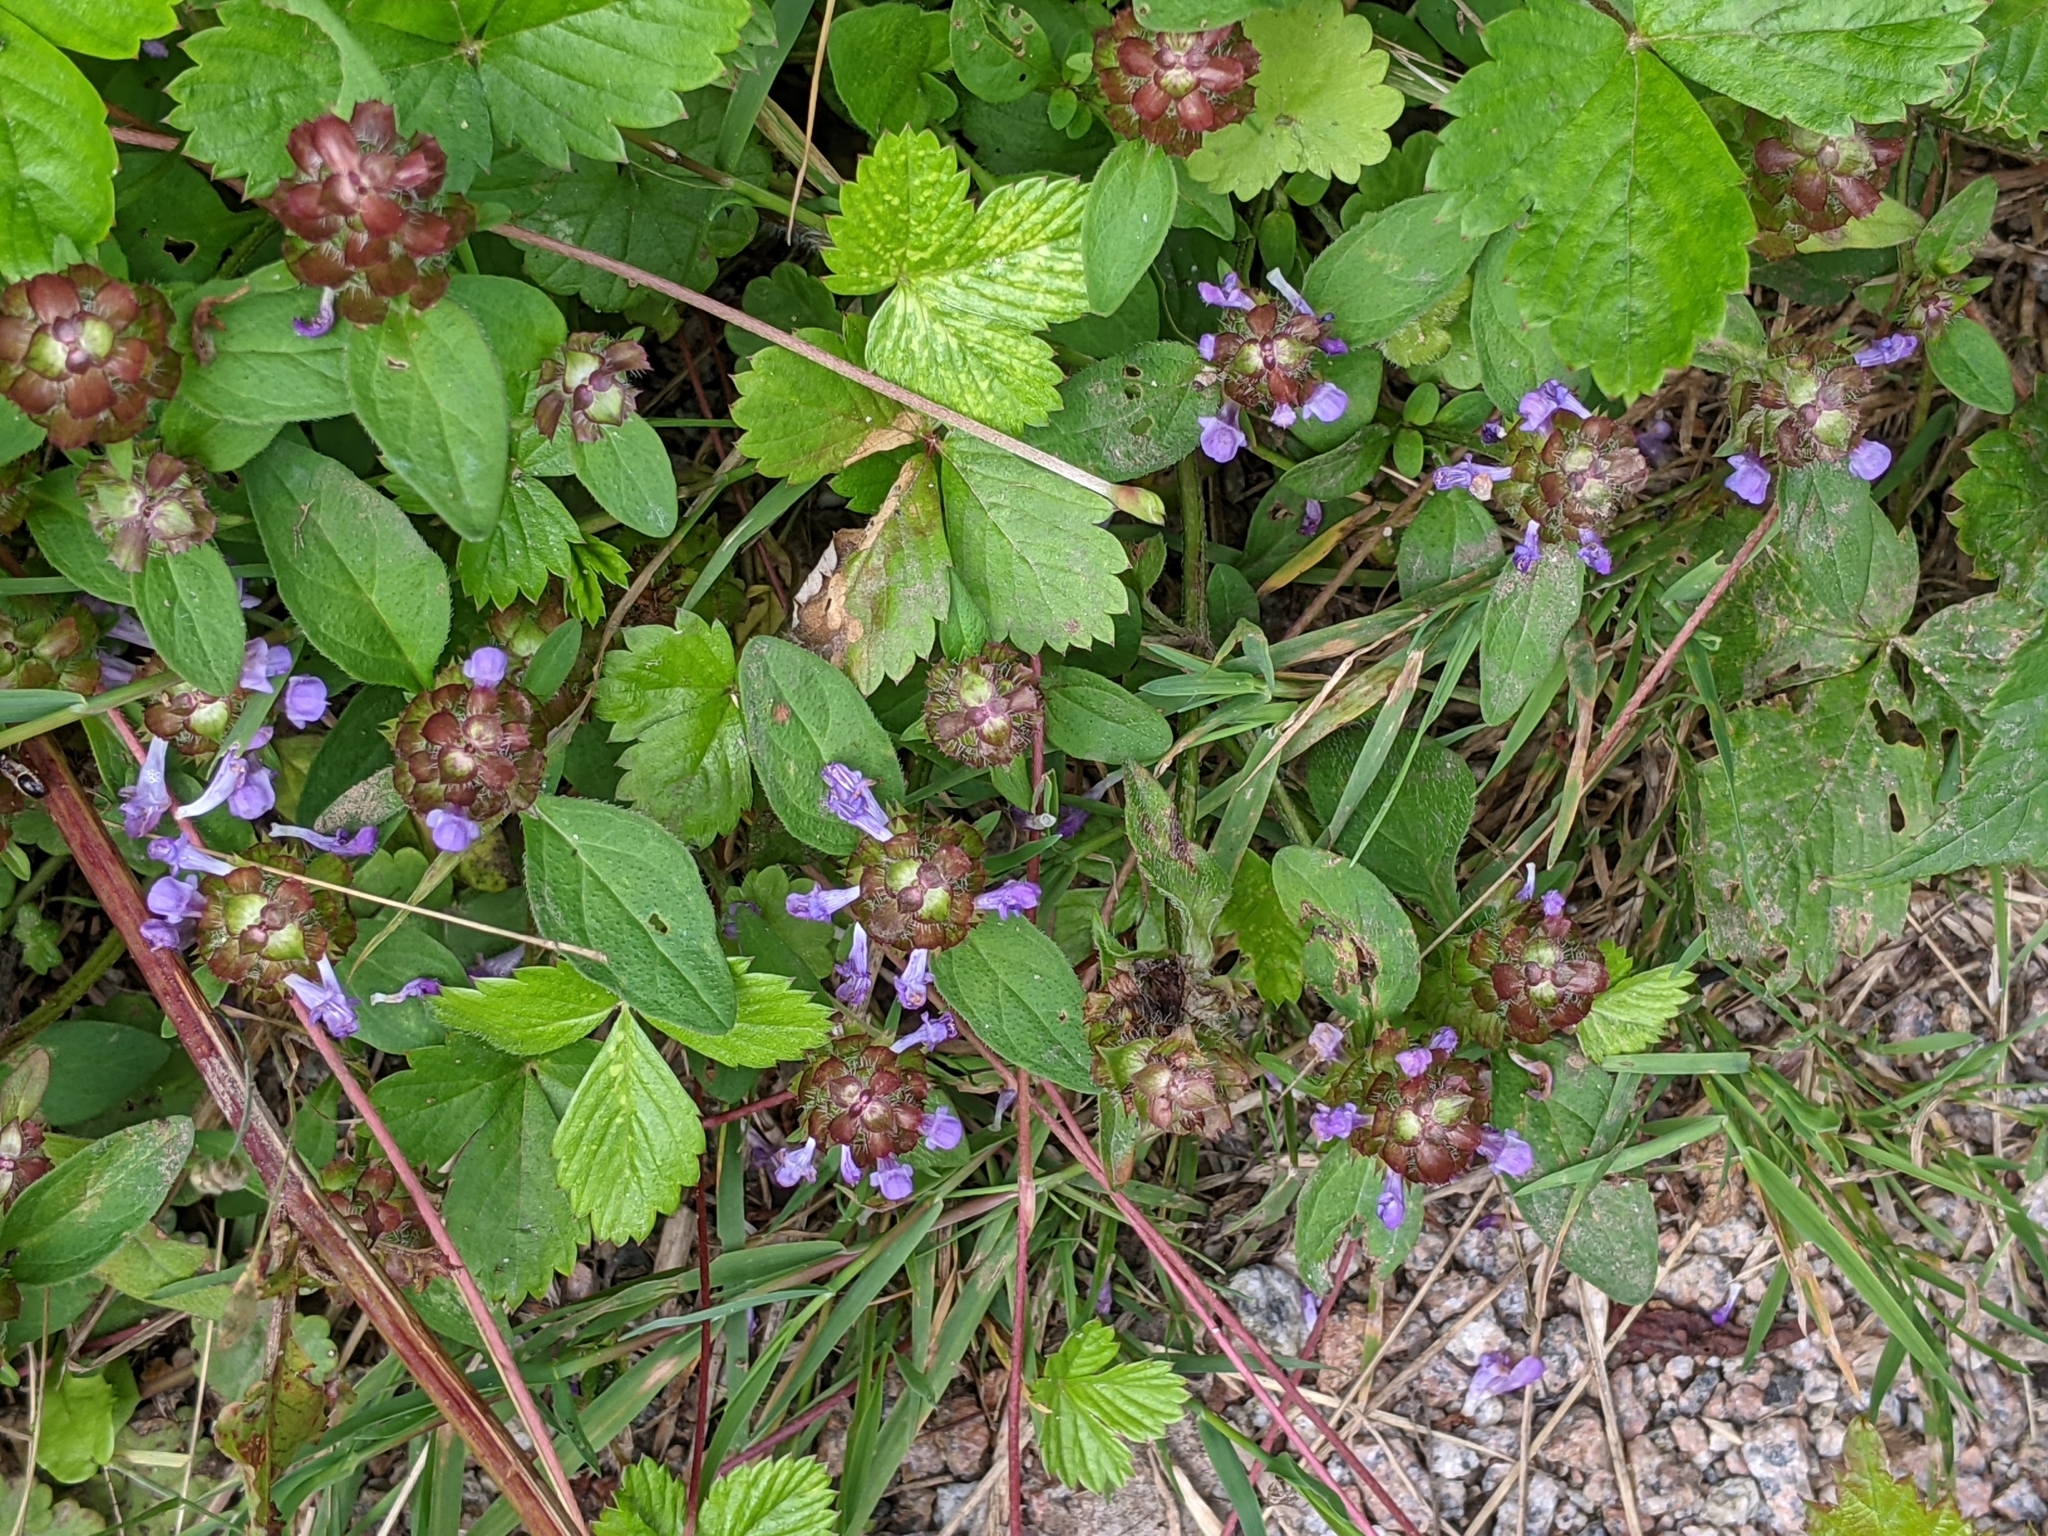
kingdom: Plantae
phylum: Tracheophyta
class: Magnoliopsida
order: Lamiales
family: Lamiaceae
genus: Prunella
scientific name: Prunella vulgaris
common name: Heal-all
